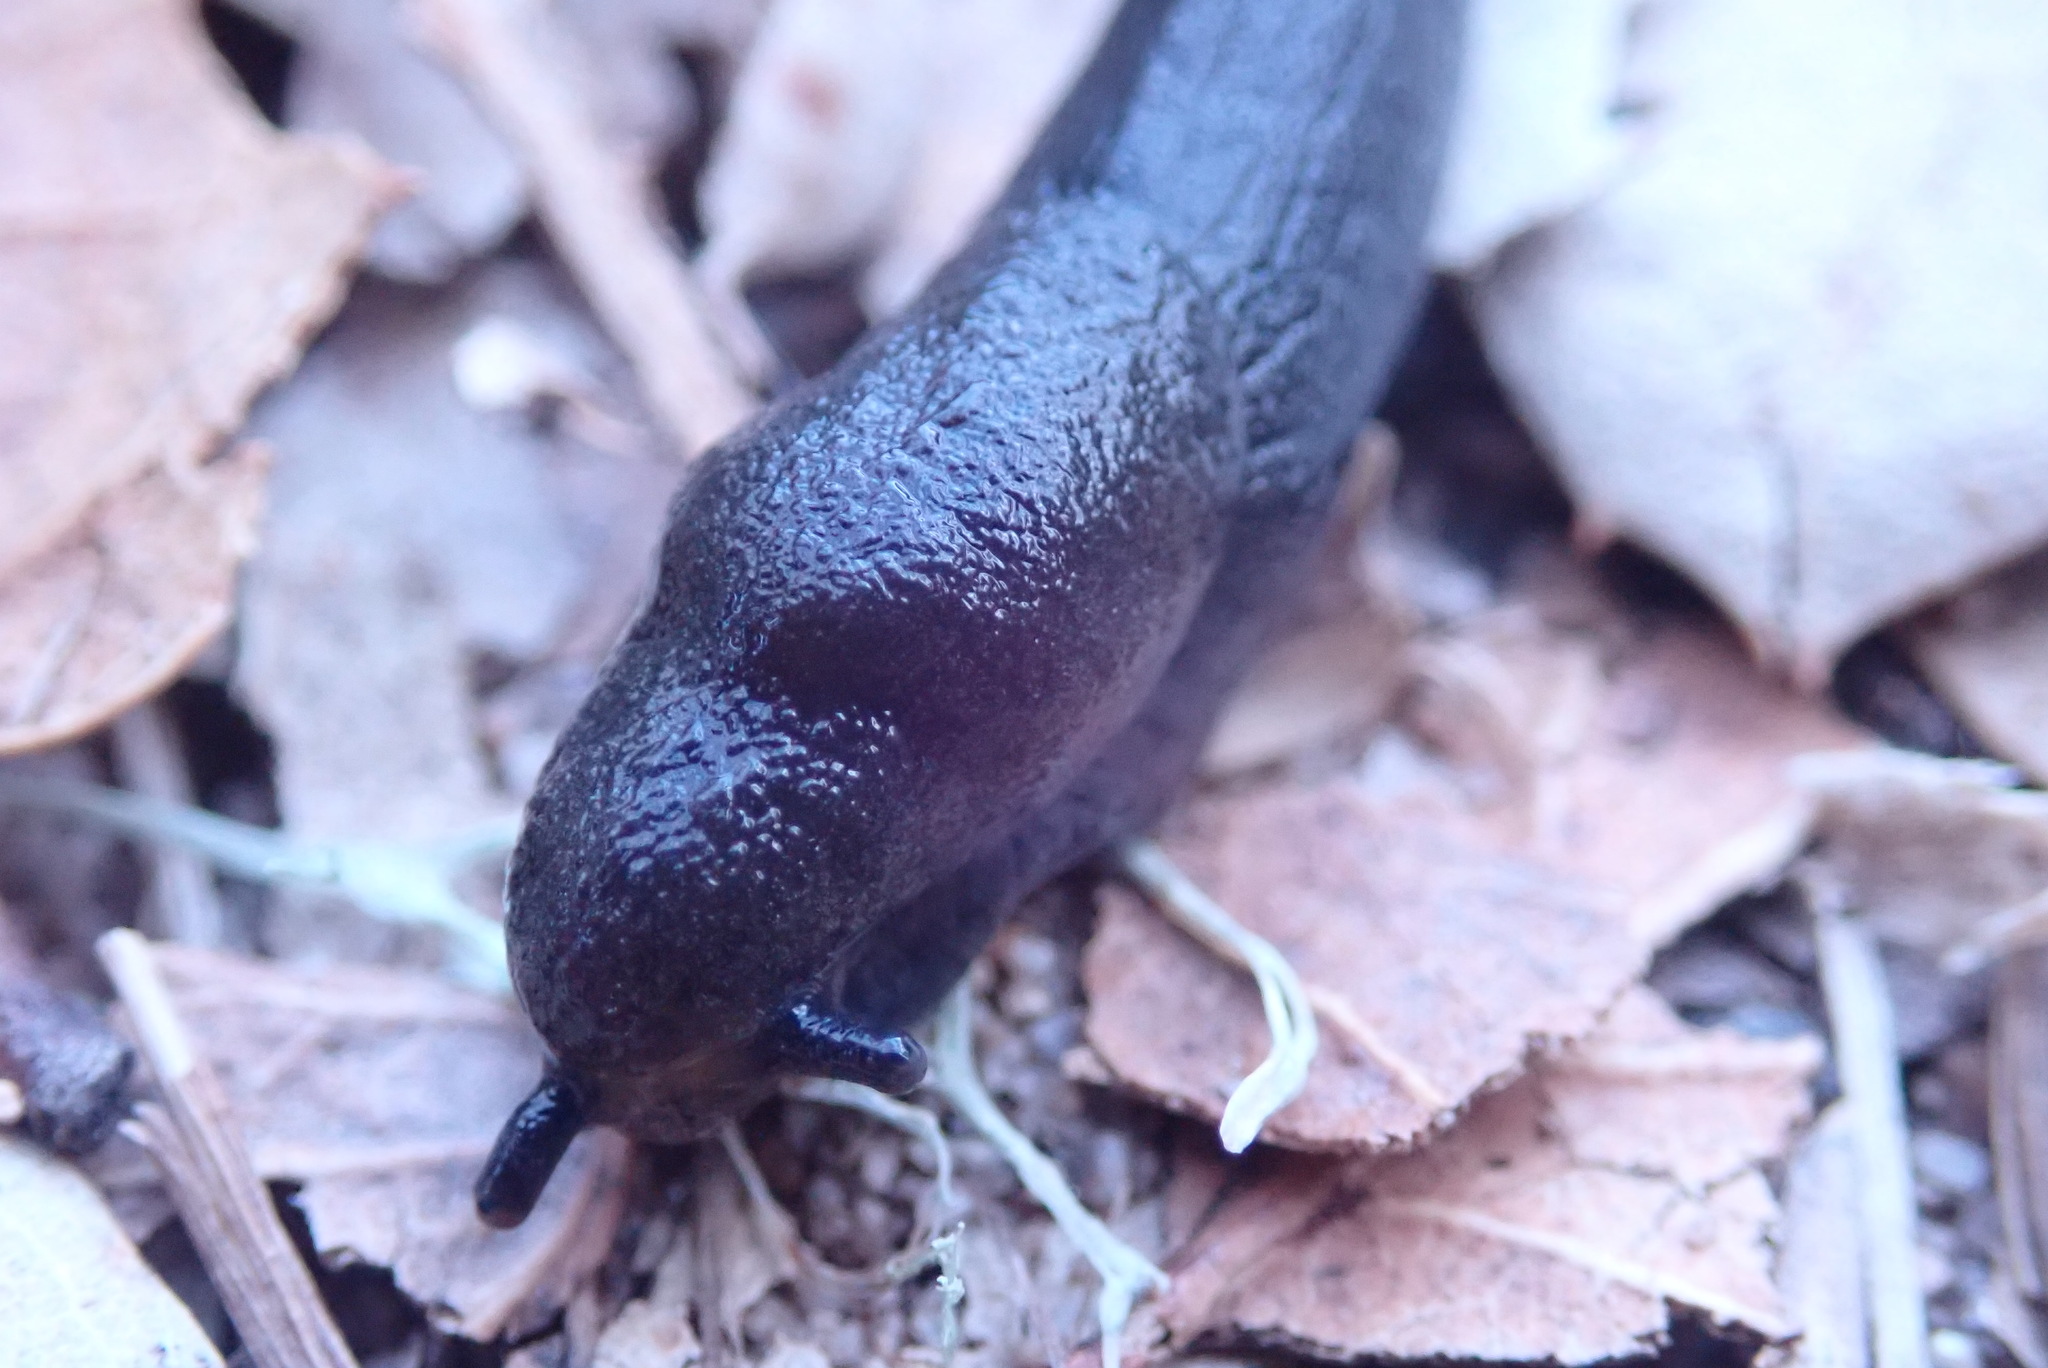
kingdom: Animalia
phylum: Mollusca
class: Gastropoda
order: Stylommatophora
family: Ariolimacidae
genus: Hesperarion
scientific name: Hesperarion niger
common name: Black western slug
